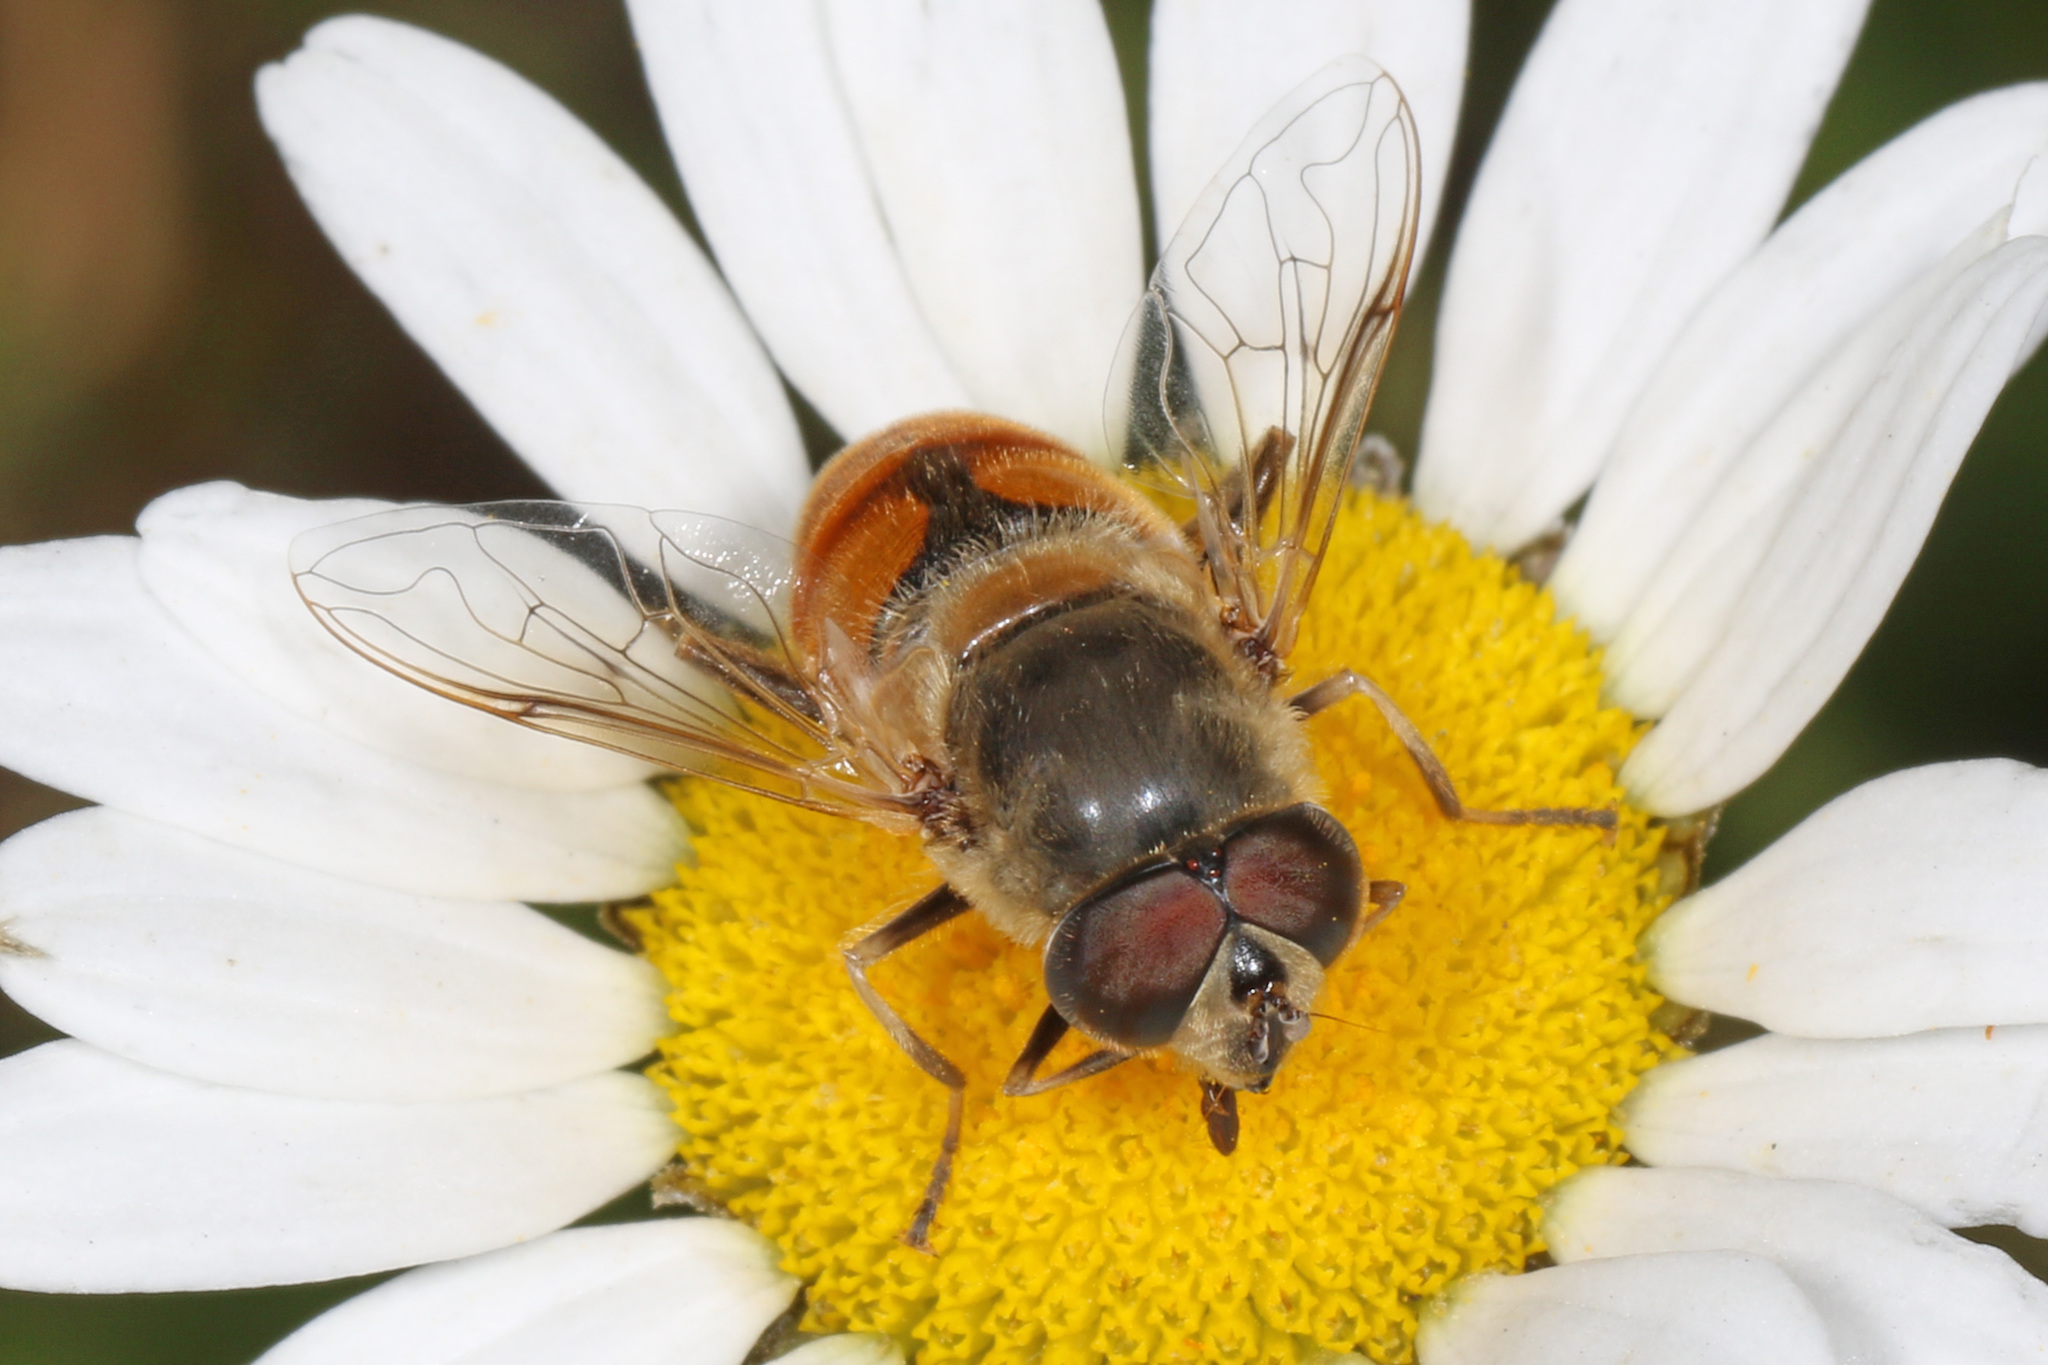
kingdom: Animalia
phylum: Arthropoda
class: Insecta
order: Diptera
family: Syrphidae
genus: Eristalis
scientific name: Eristalis tenax
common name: Drone fly
